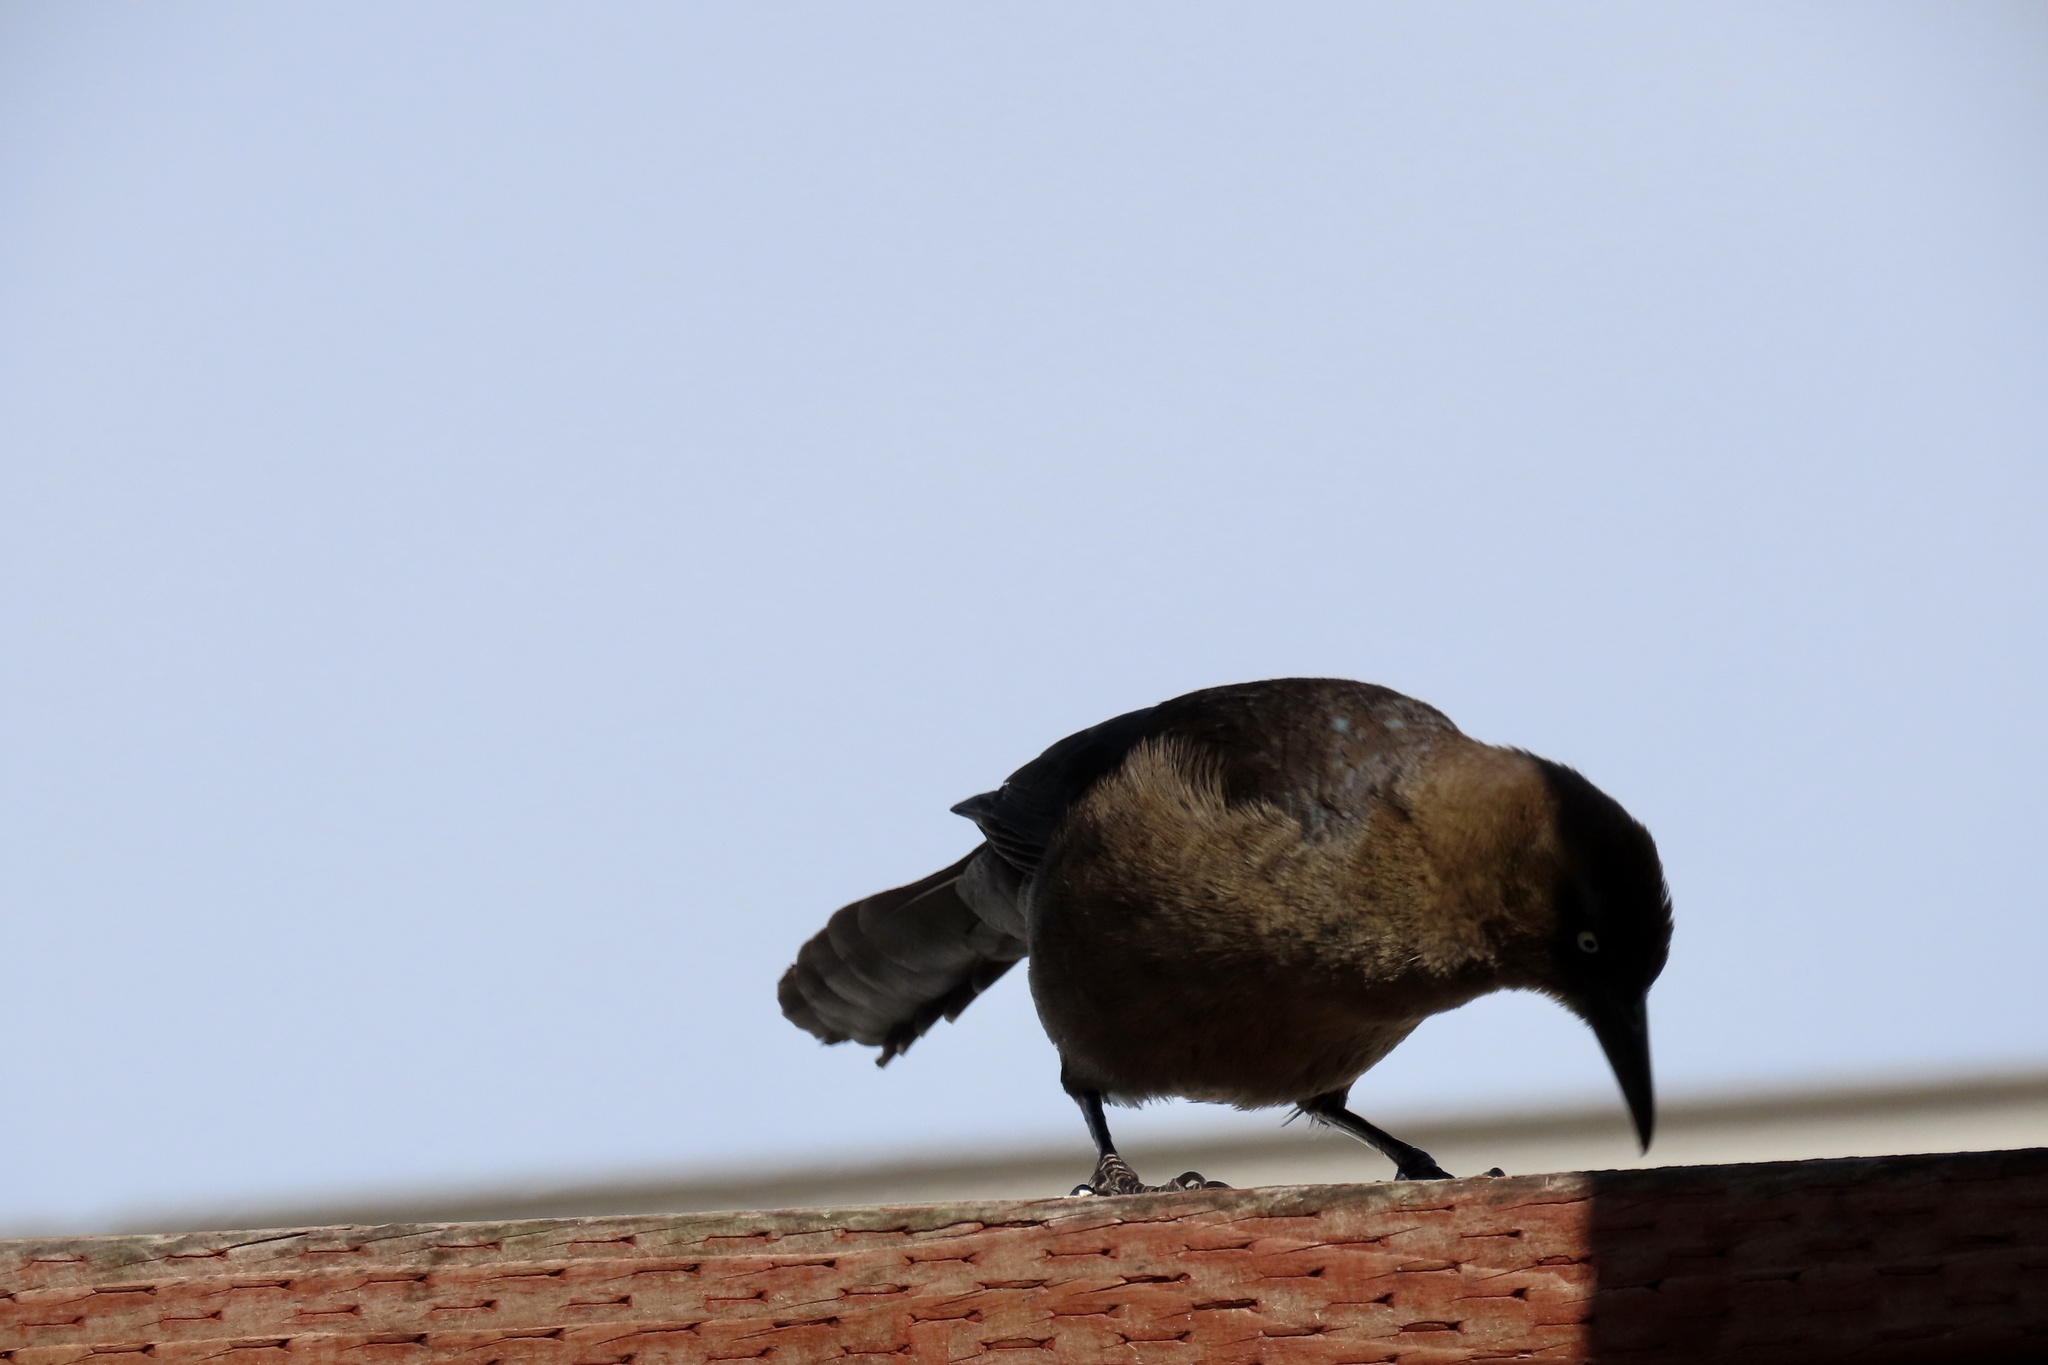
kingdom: Animalia
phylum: Chordata
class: Aves
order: Passeriformes
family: Icteridae
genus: Quiscalus
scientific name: Quiscalus mexicanus
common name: Great-tailed grackle
